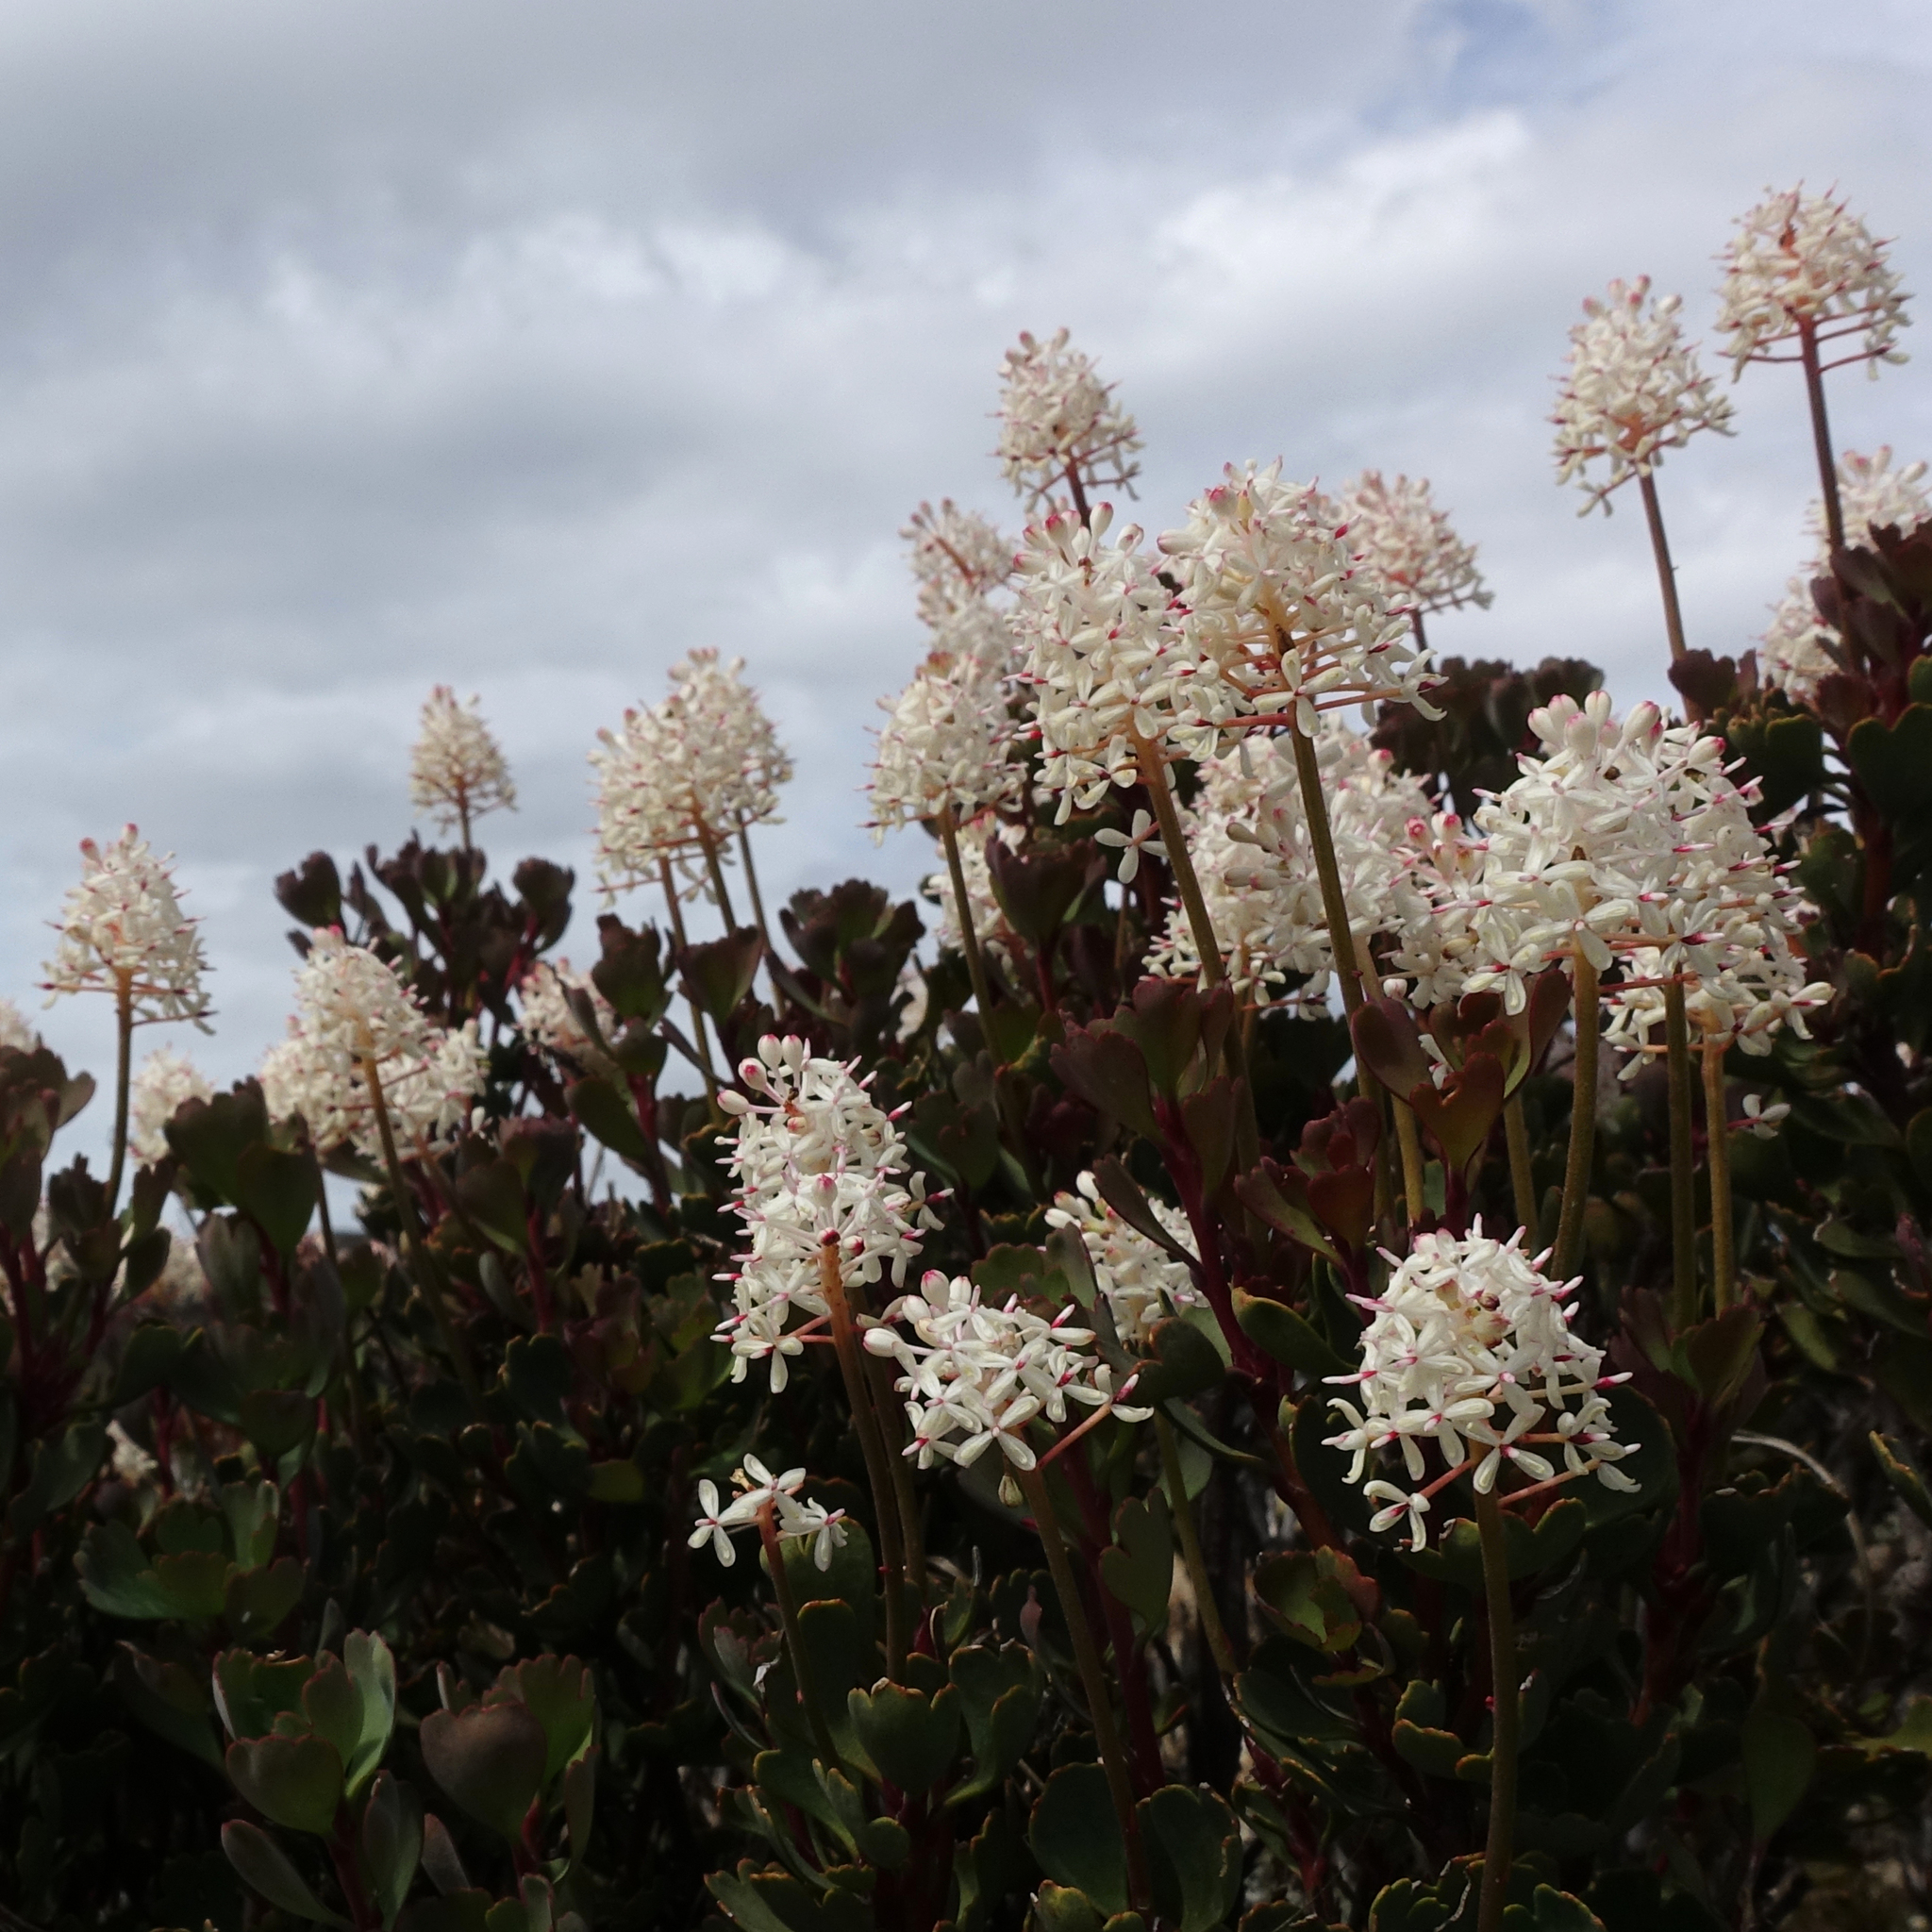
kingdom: Plantae
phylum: Tracheophyta
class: Magnoliopsida
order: Proteales
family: Proteaceae
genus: Bellendena
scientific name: Bellendena montana
